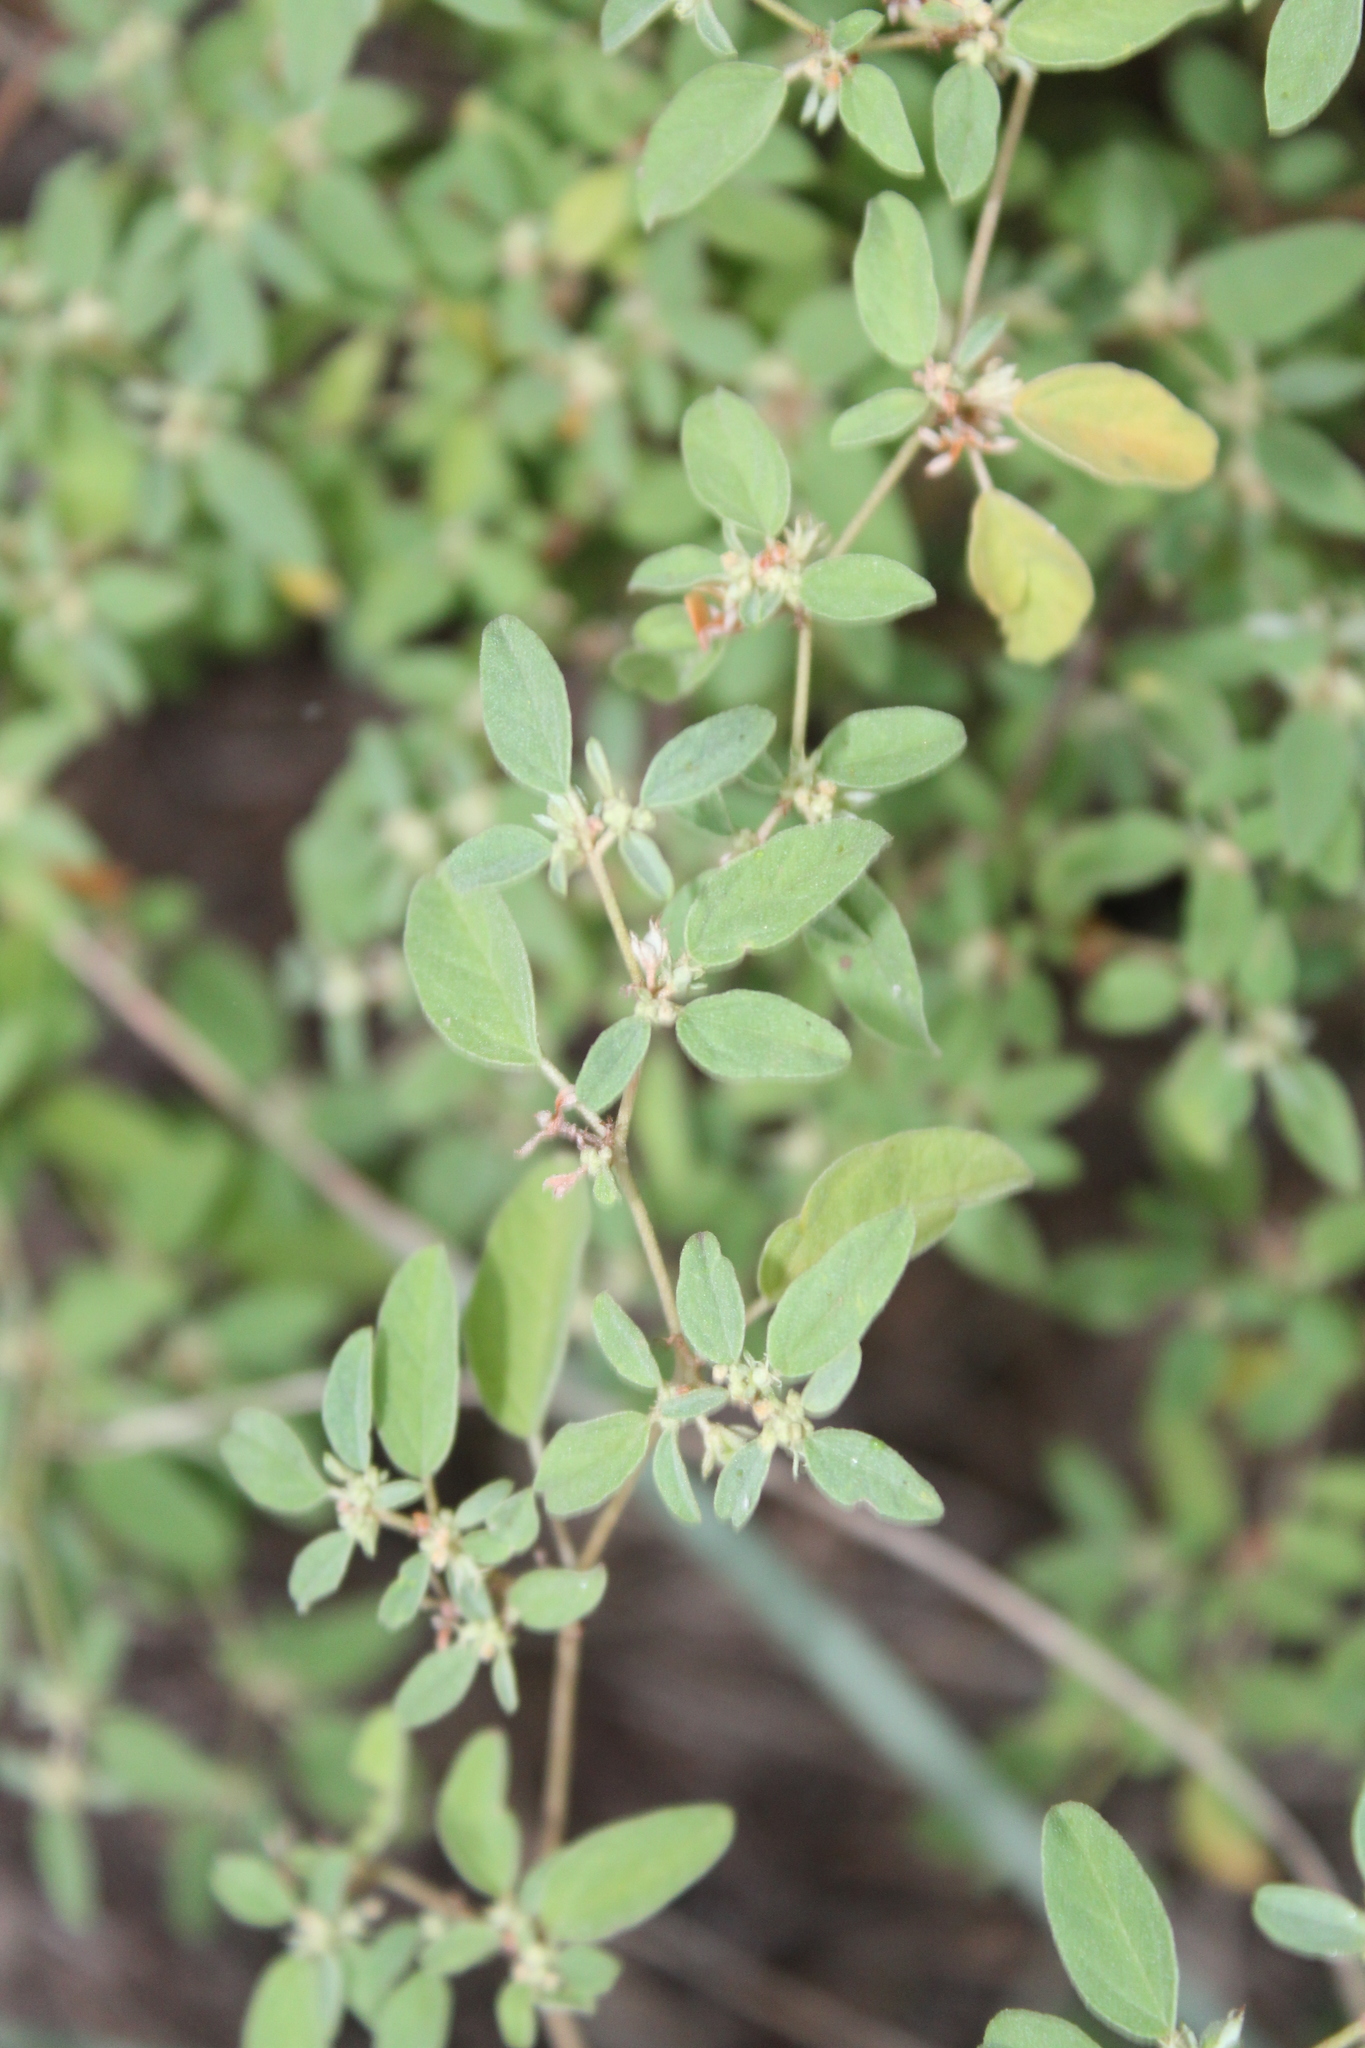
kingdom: Plantae
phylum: Tracheophyta
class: Magnoliopsida
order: Malpighiales
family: Euphorbiaceae
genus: Croton
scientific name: Croton monanthogynus
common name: One-seed croton
